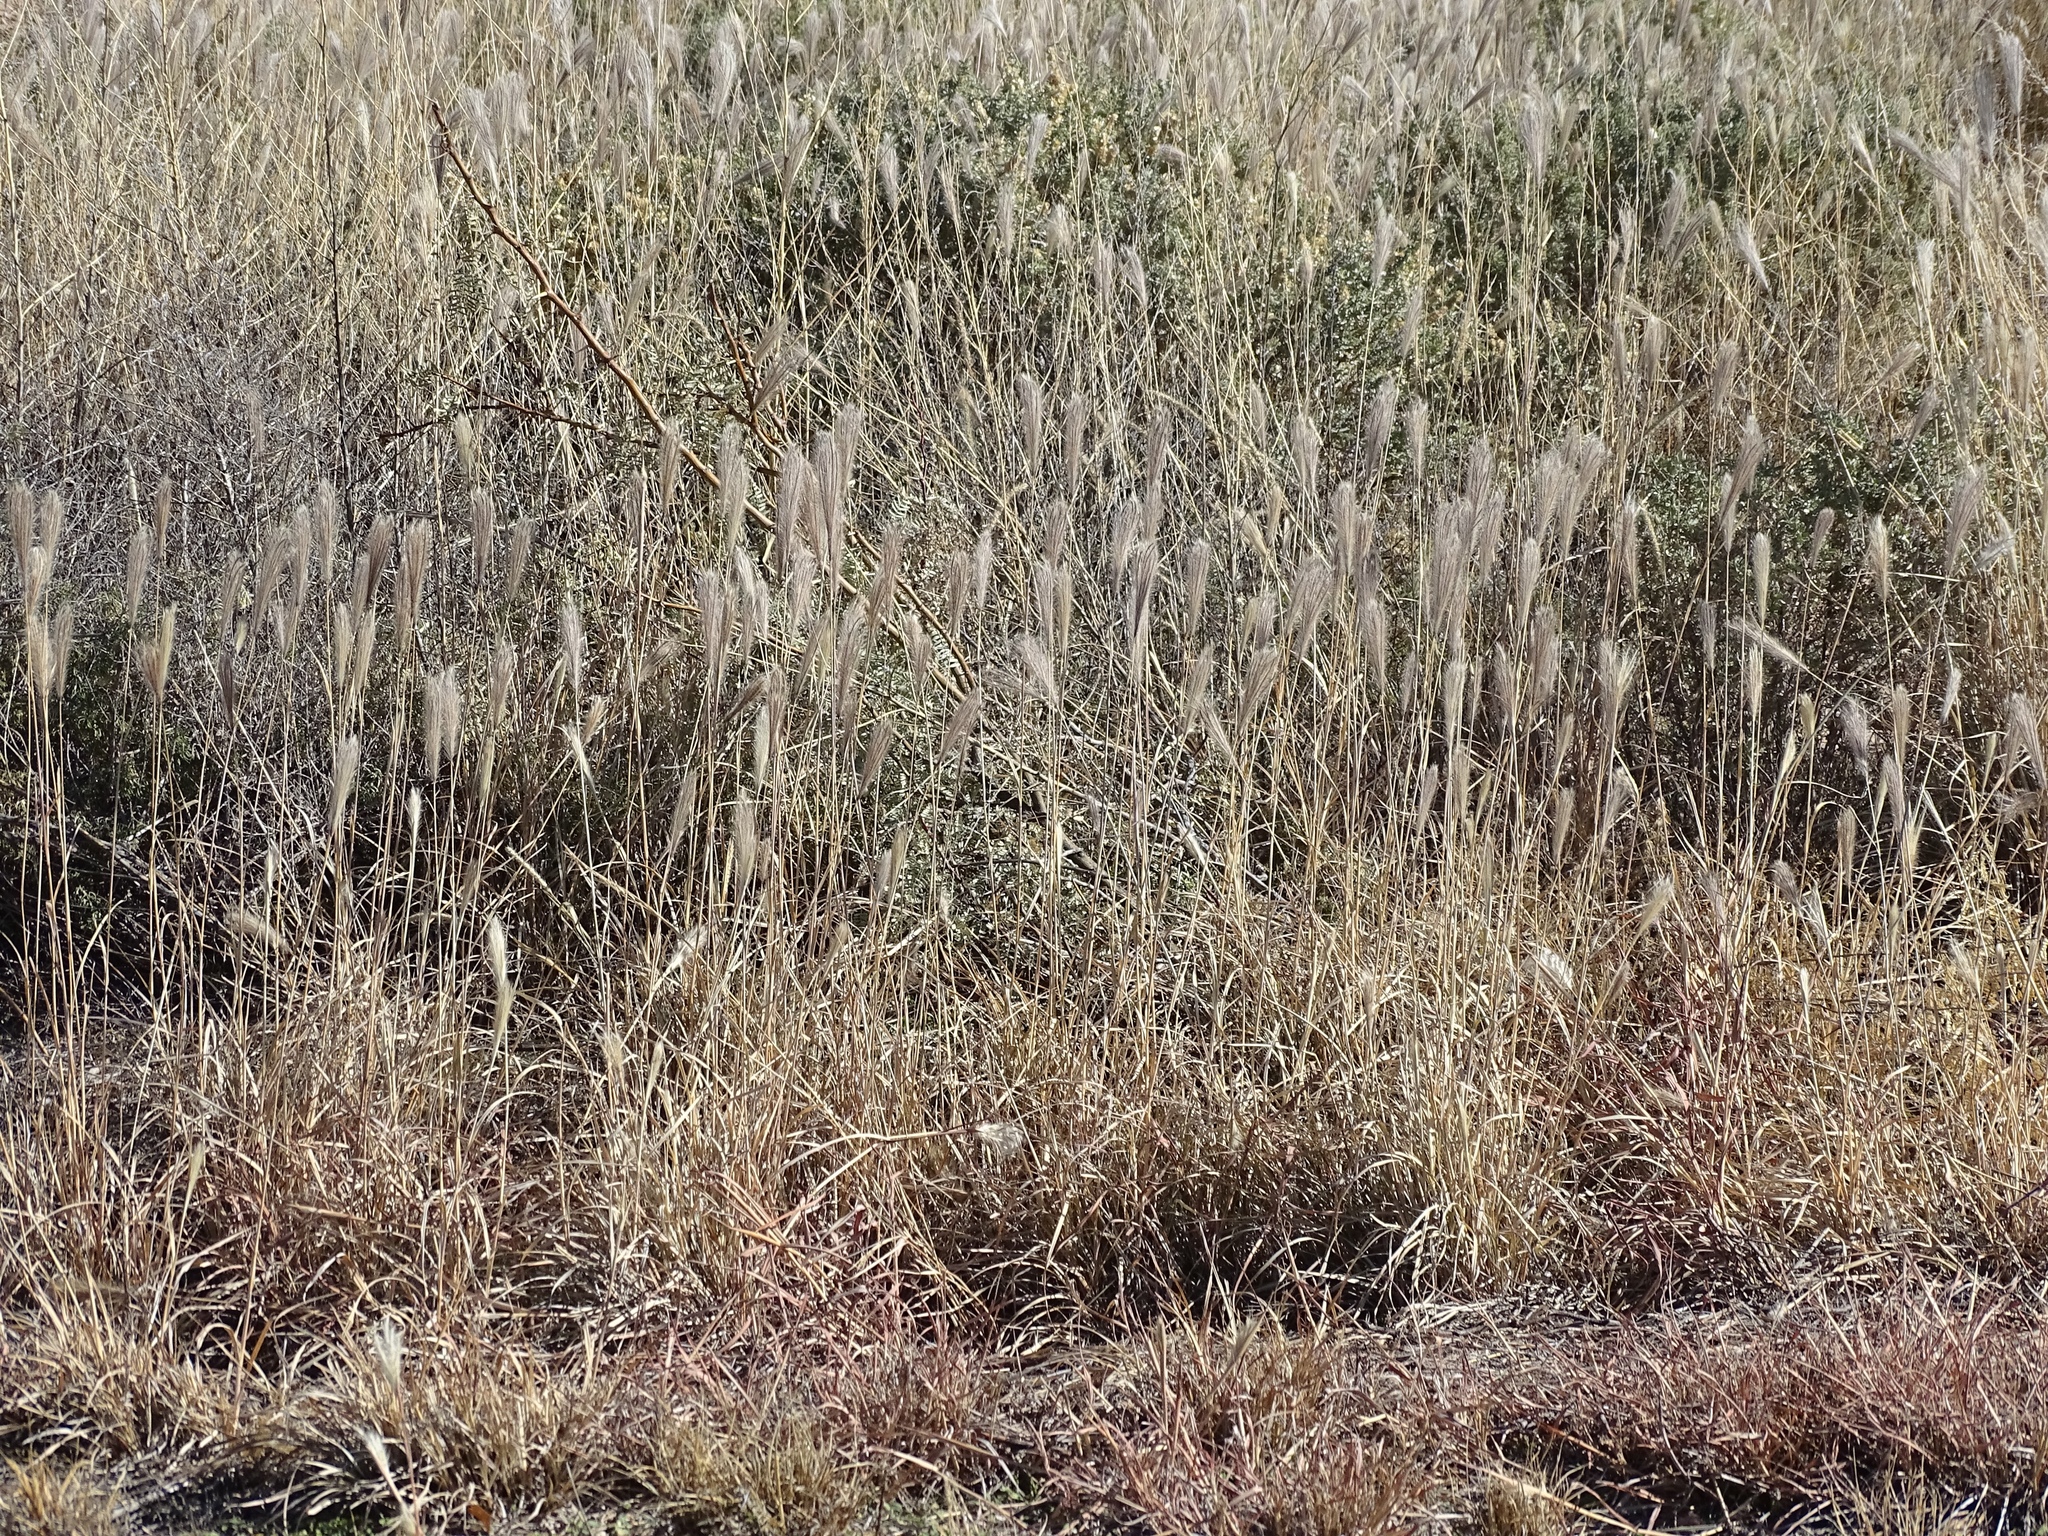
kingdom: Plantae
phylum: Tracheophyta
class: Liliopsida
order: Poales
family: Poaceae
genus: Bothriochloa
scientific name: Bothriochloa barbinodis
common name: Cane bluestem
